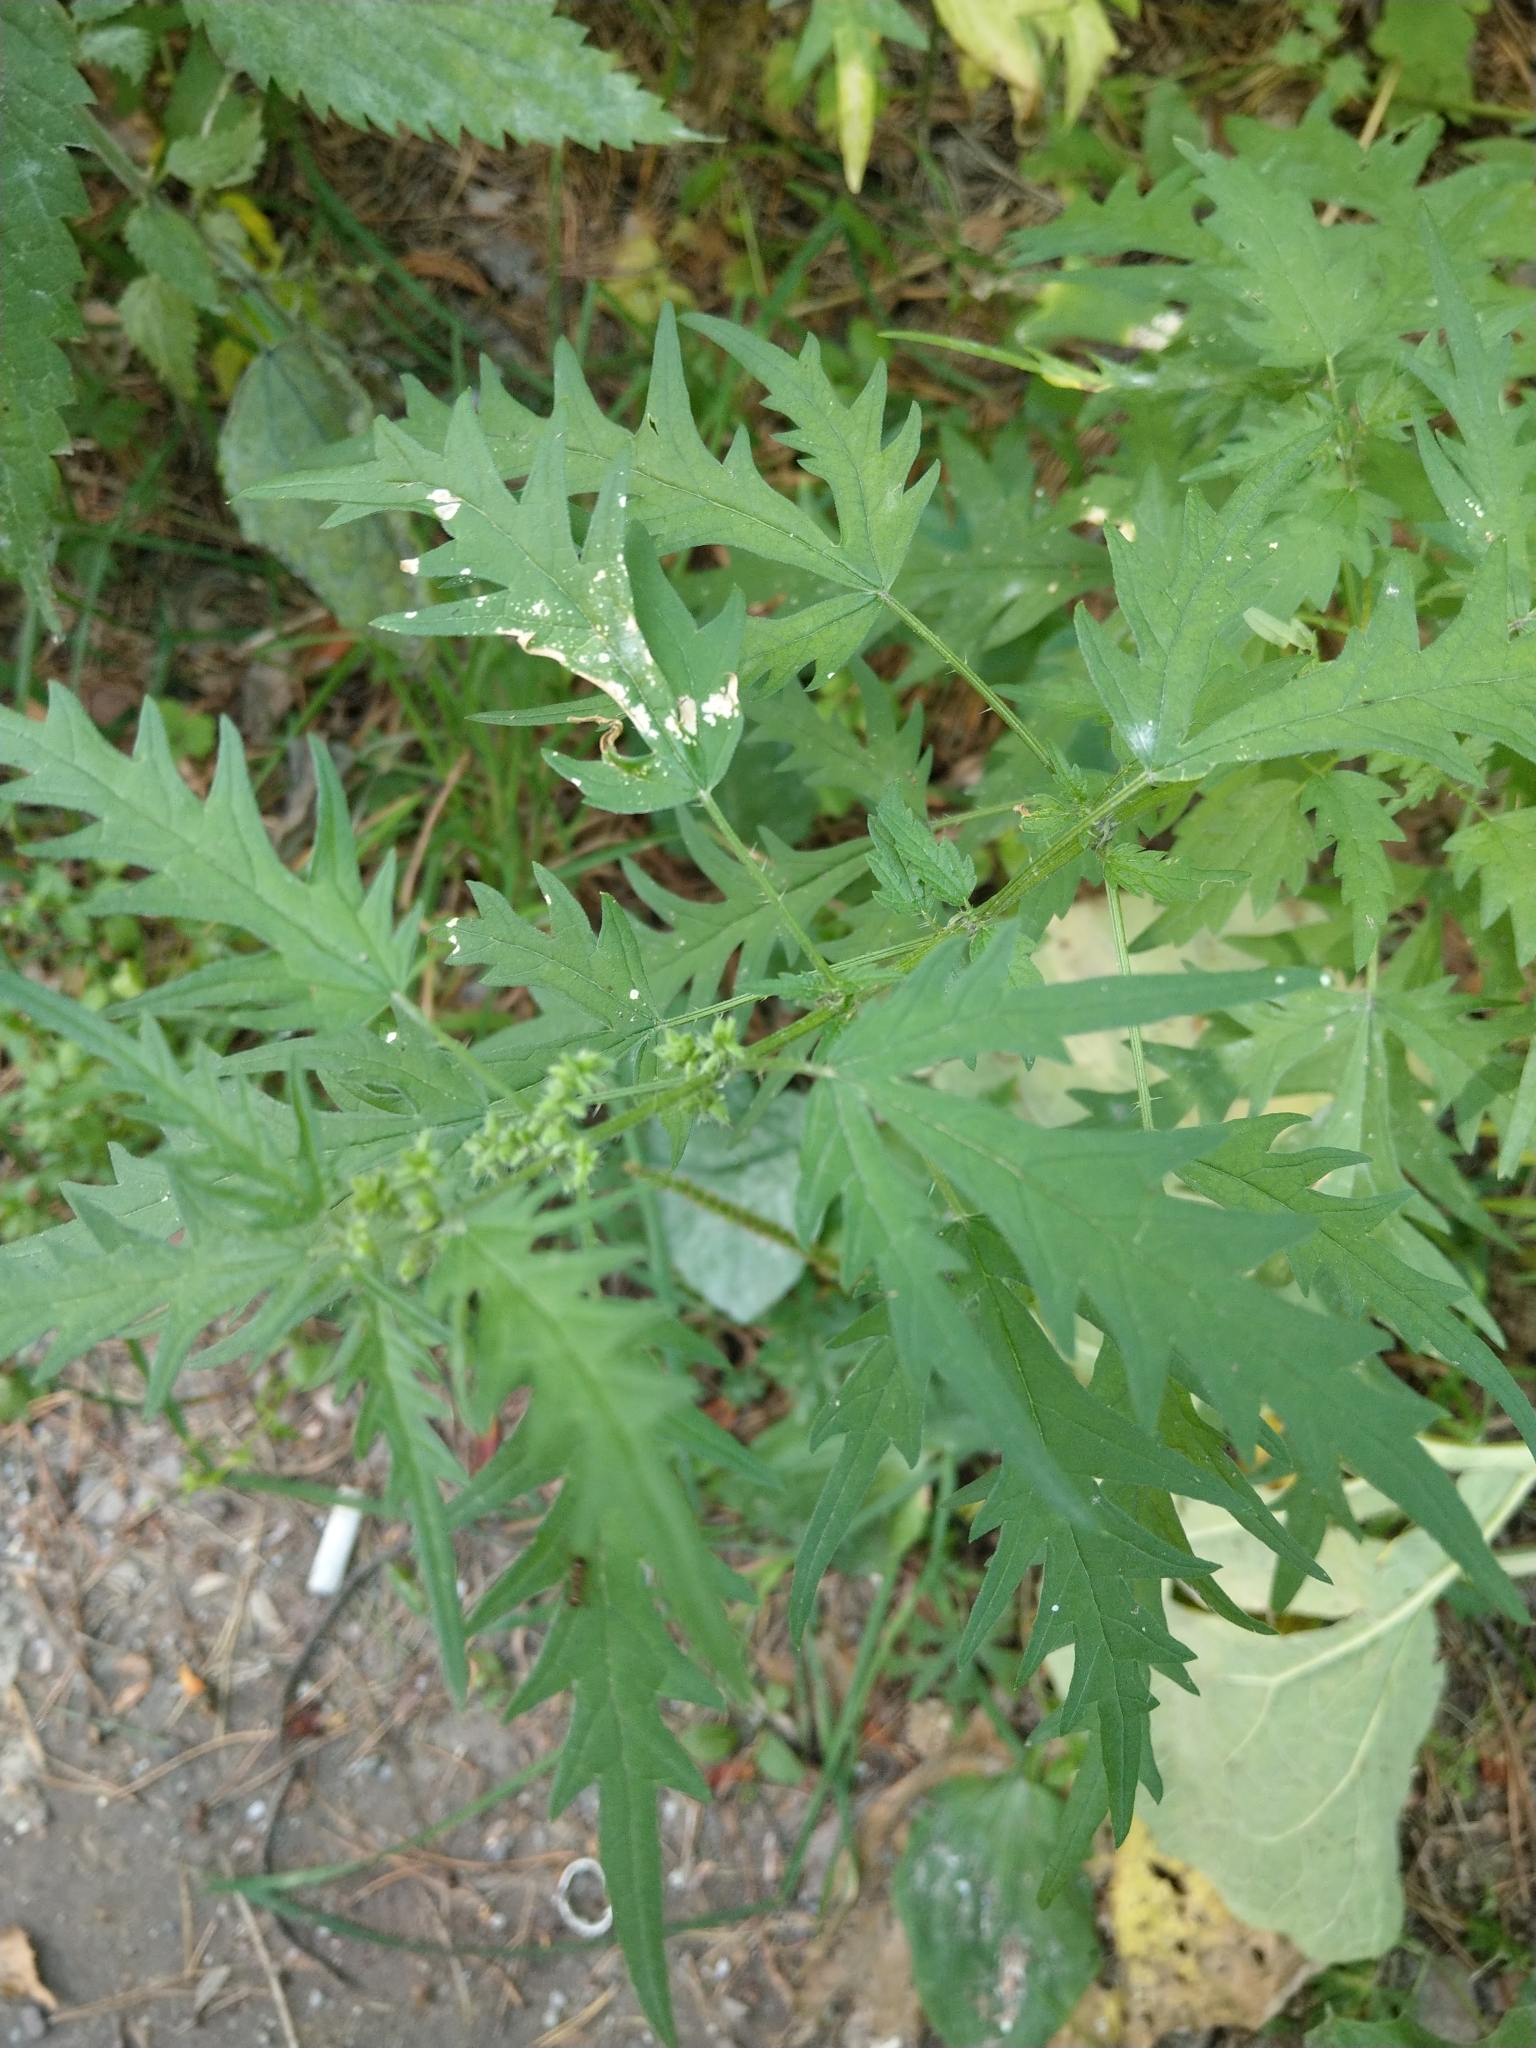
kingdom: Plantae
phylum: Tracheophyta
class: Magnoliopsida
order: Rosales
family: Urticaceae
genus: Urtica
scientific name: Urtica cannabina
